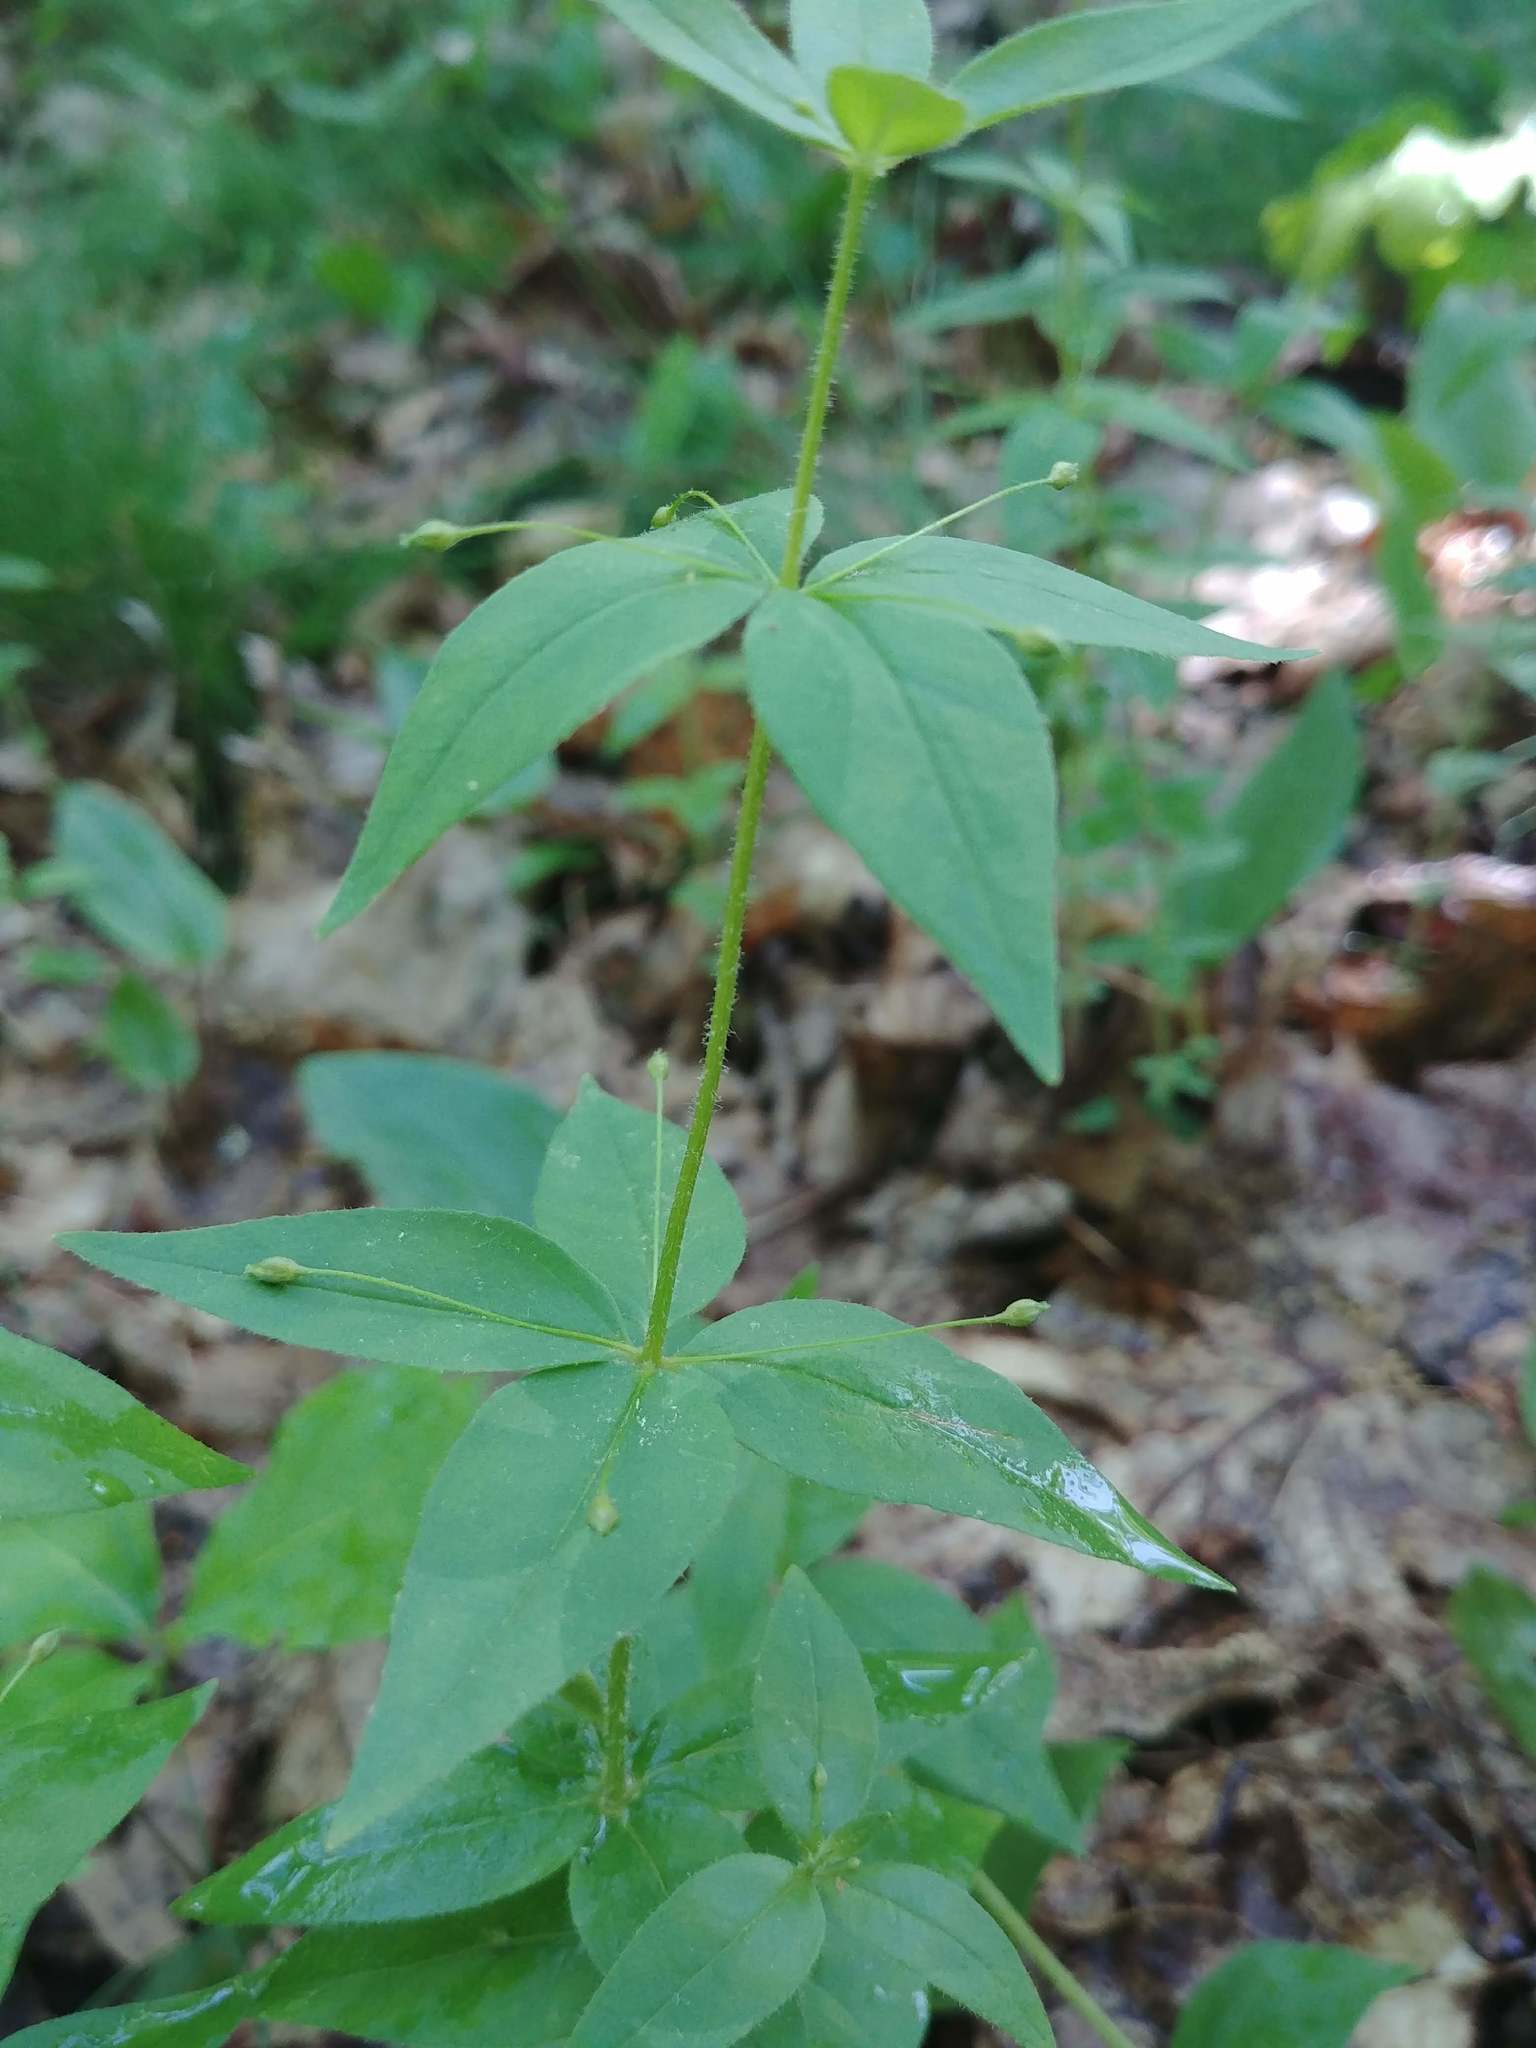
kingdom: Plantae
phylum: Tracheophyta
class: Magnoliopsida
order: Ericales
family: Primulaceae
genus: Lysimachia
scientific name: Lysimachia quadrifolia
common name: Whorled loosestrife
